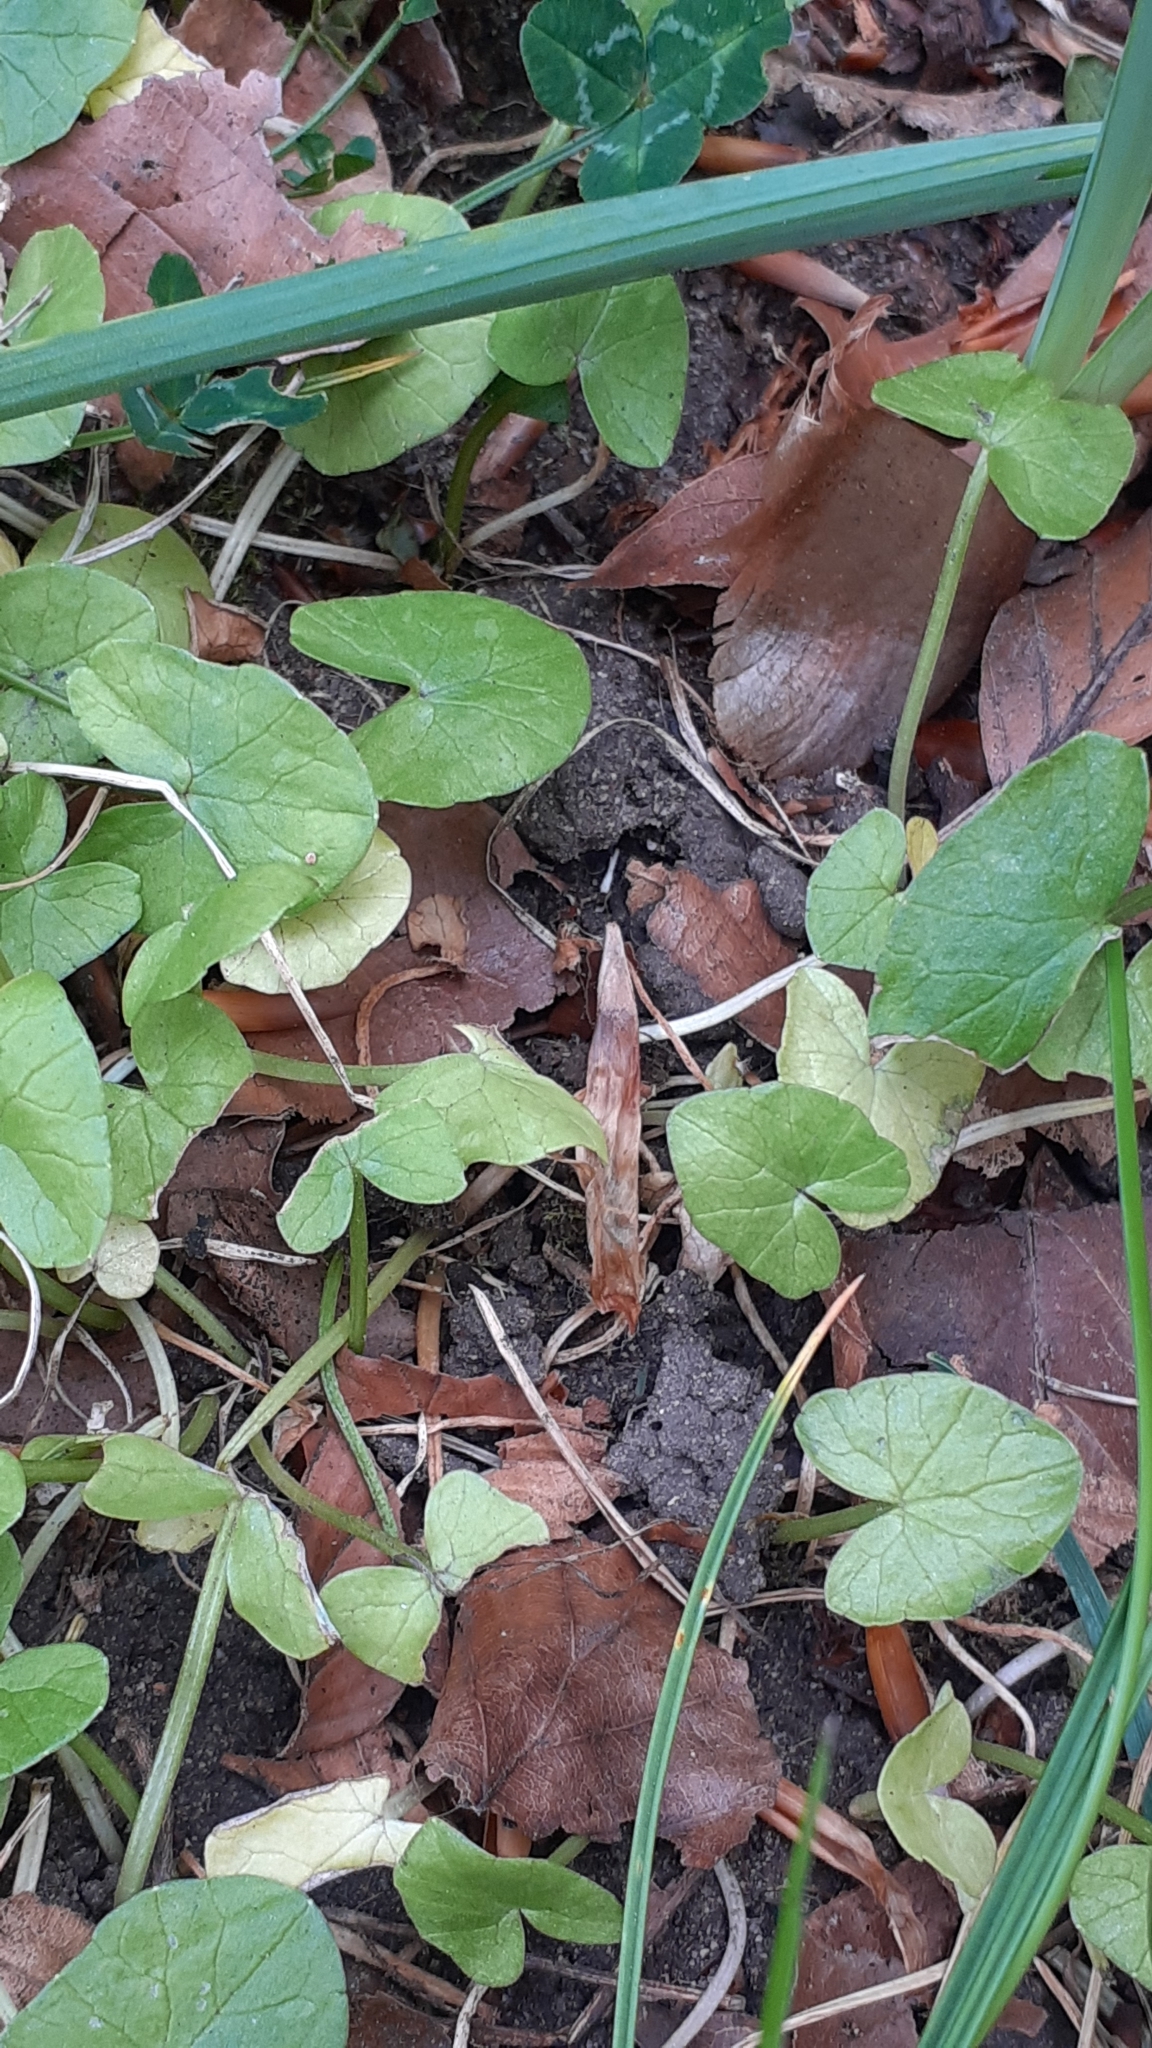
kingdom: Plantae
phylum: Tracheophyta
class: Magnoliopsida
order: Ranunculales
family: Ranunculaceae
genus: Ficaria
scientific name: Ficaria verna
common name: Lesser celandine
